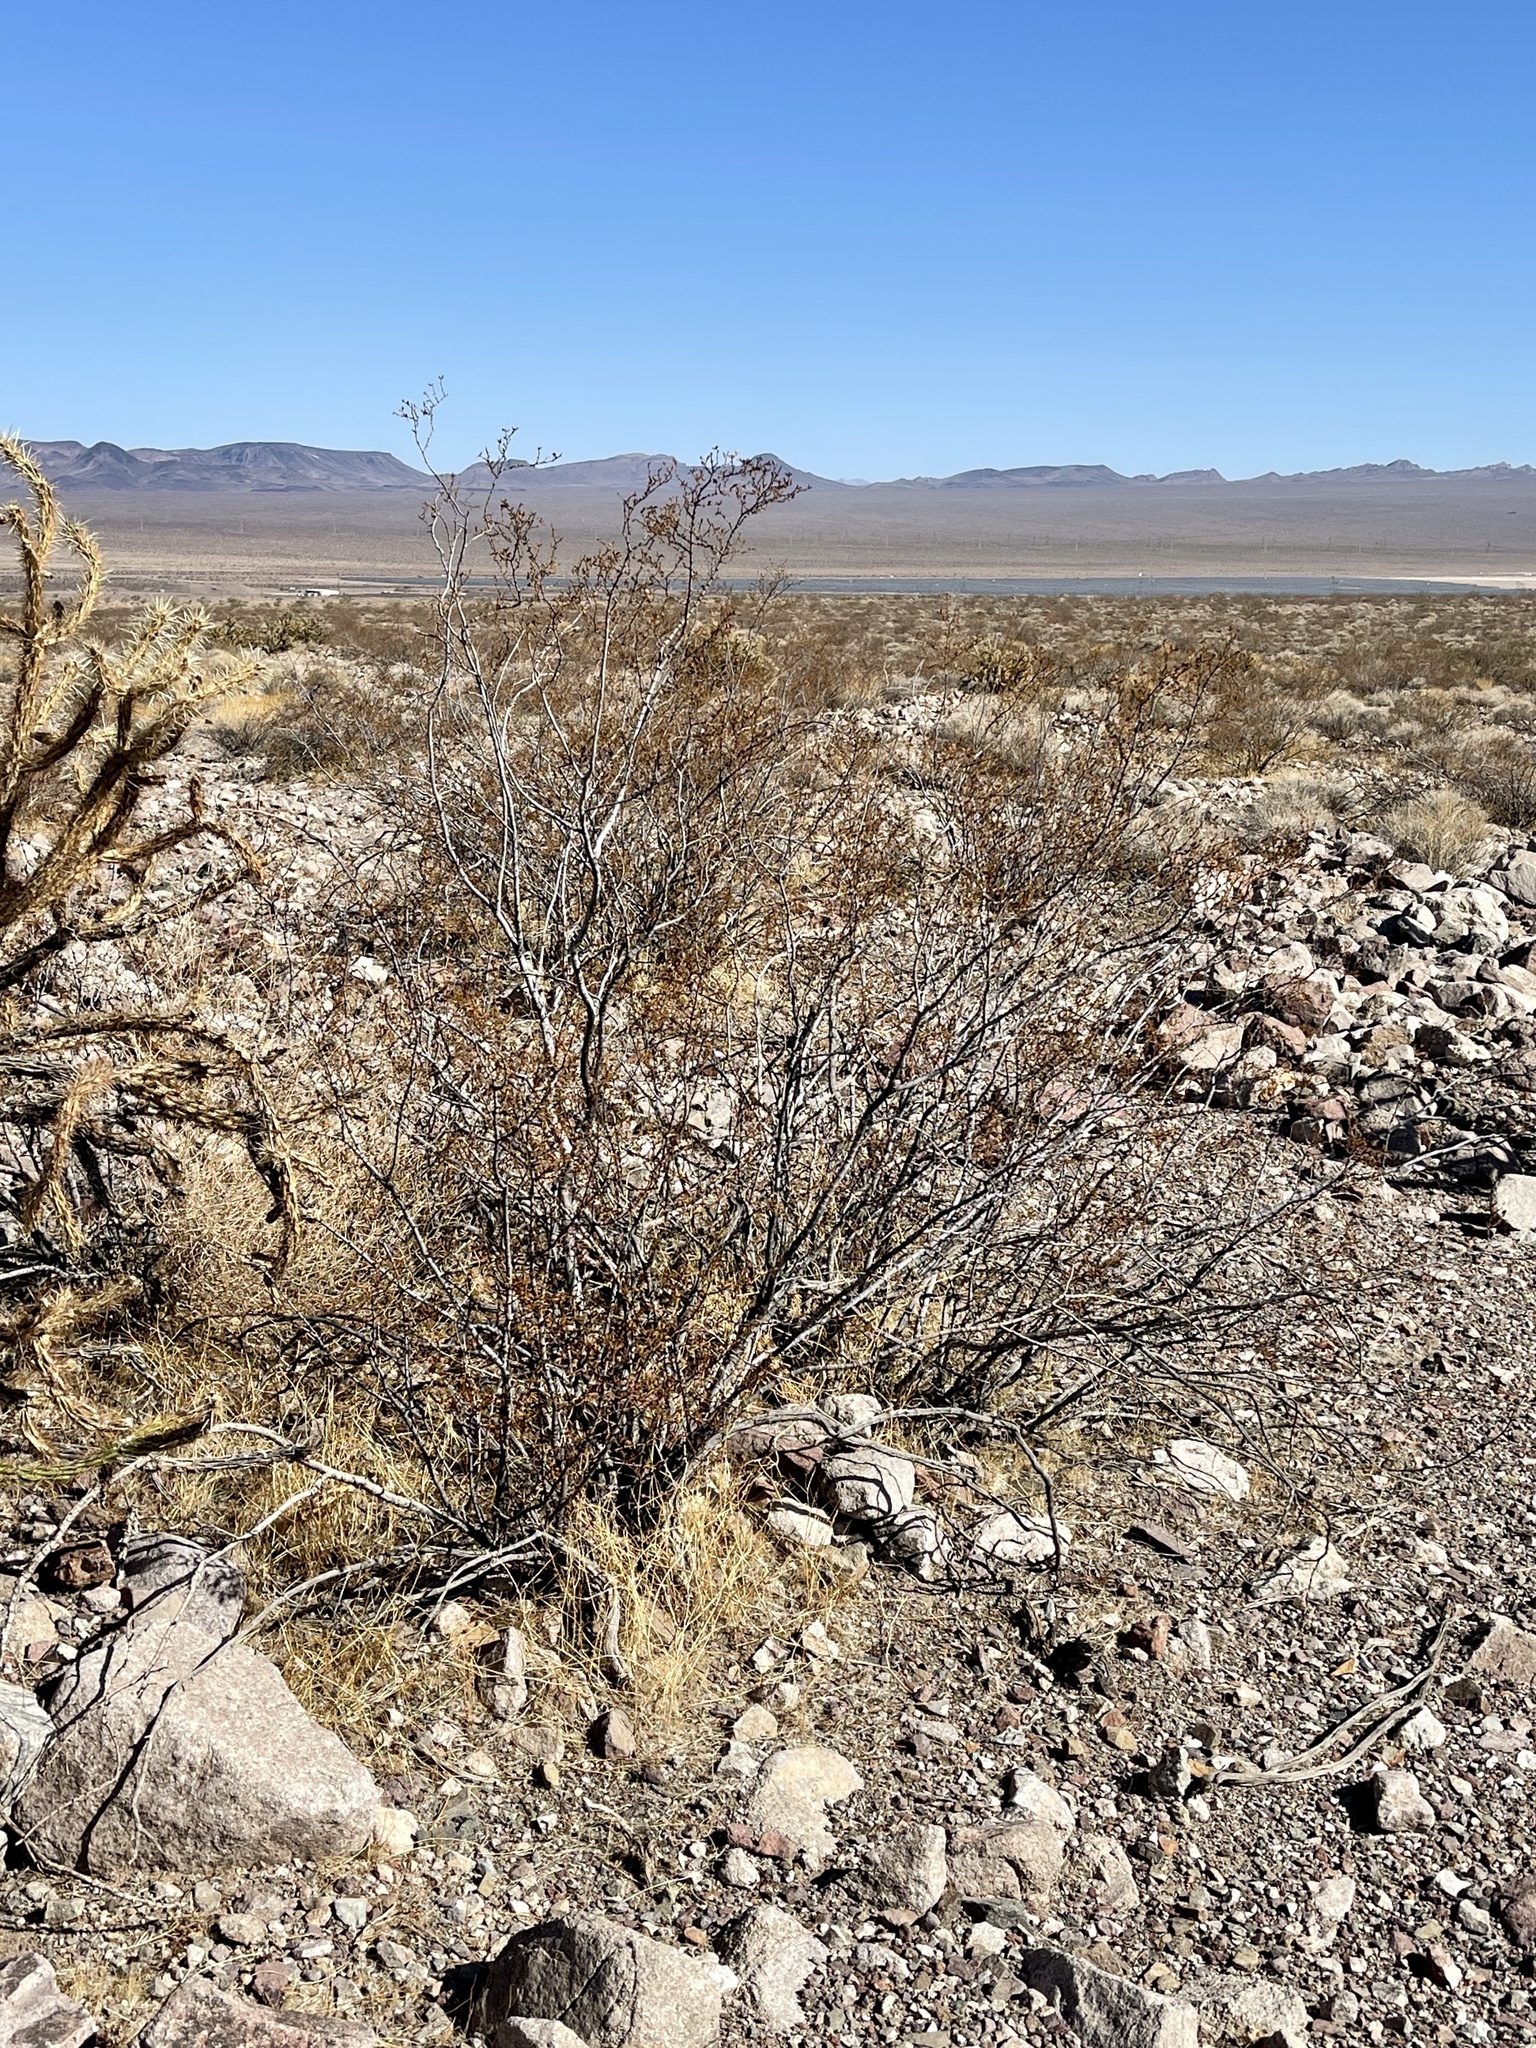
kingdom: Plantae
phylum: Tracheophyta
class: Magnoliopsida
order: Zygophyllales
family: Zygophyllaceae
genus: Larrea
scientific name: Larrea tridentata
